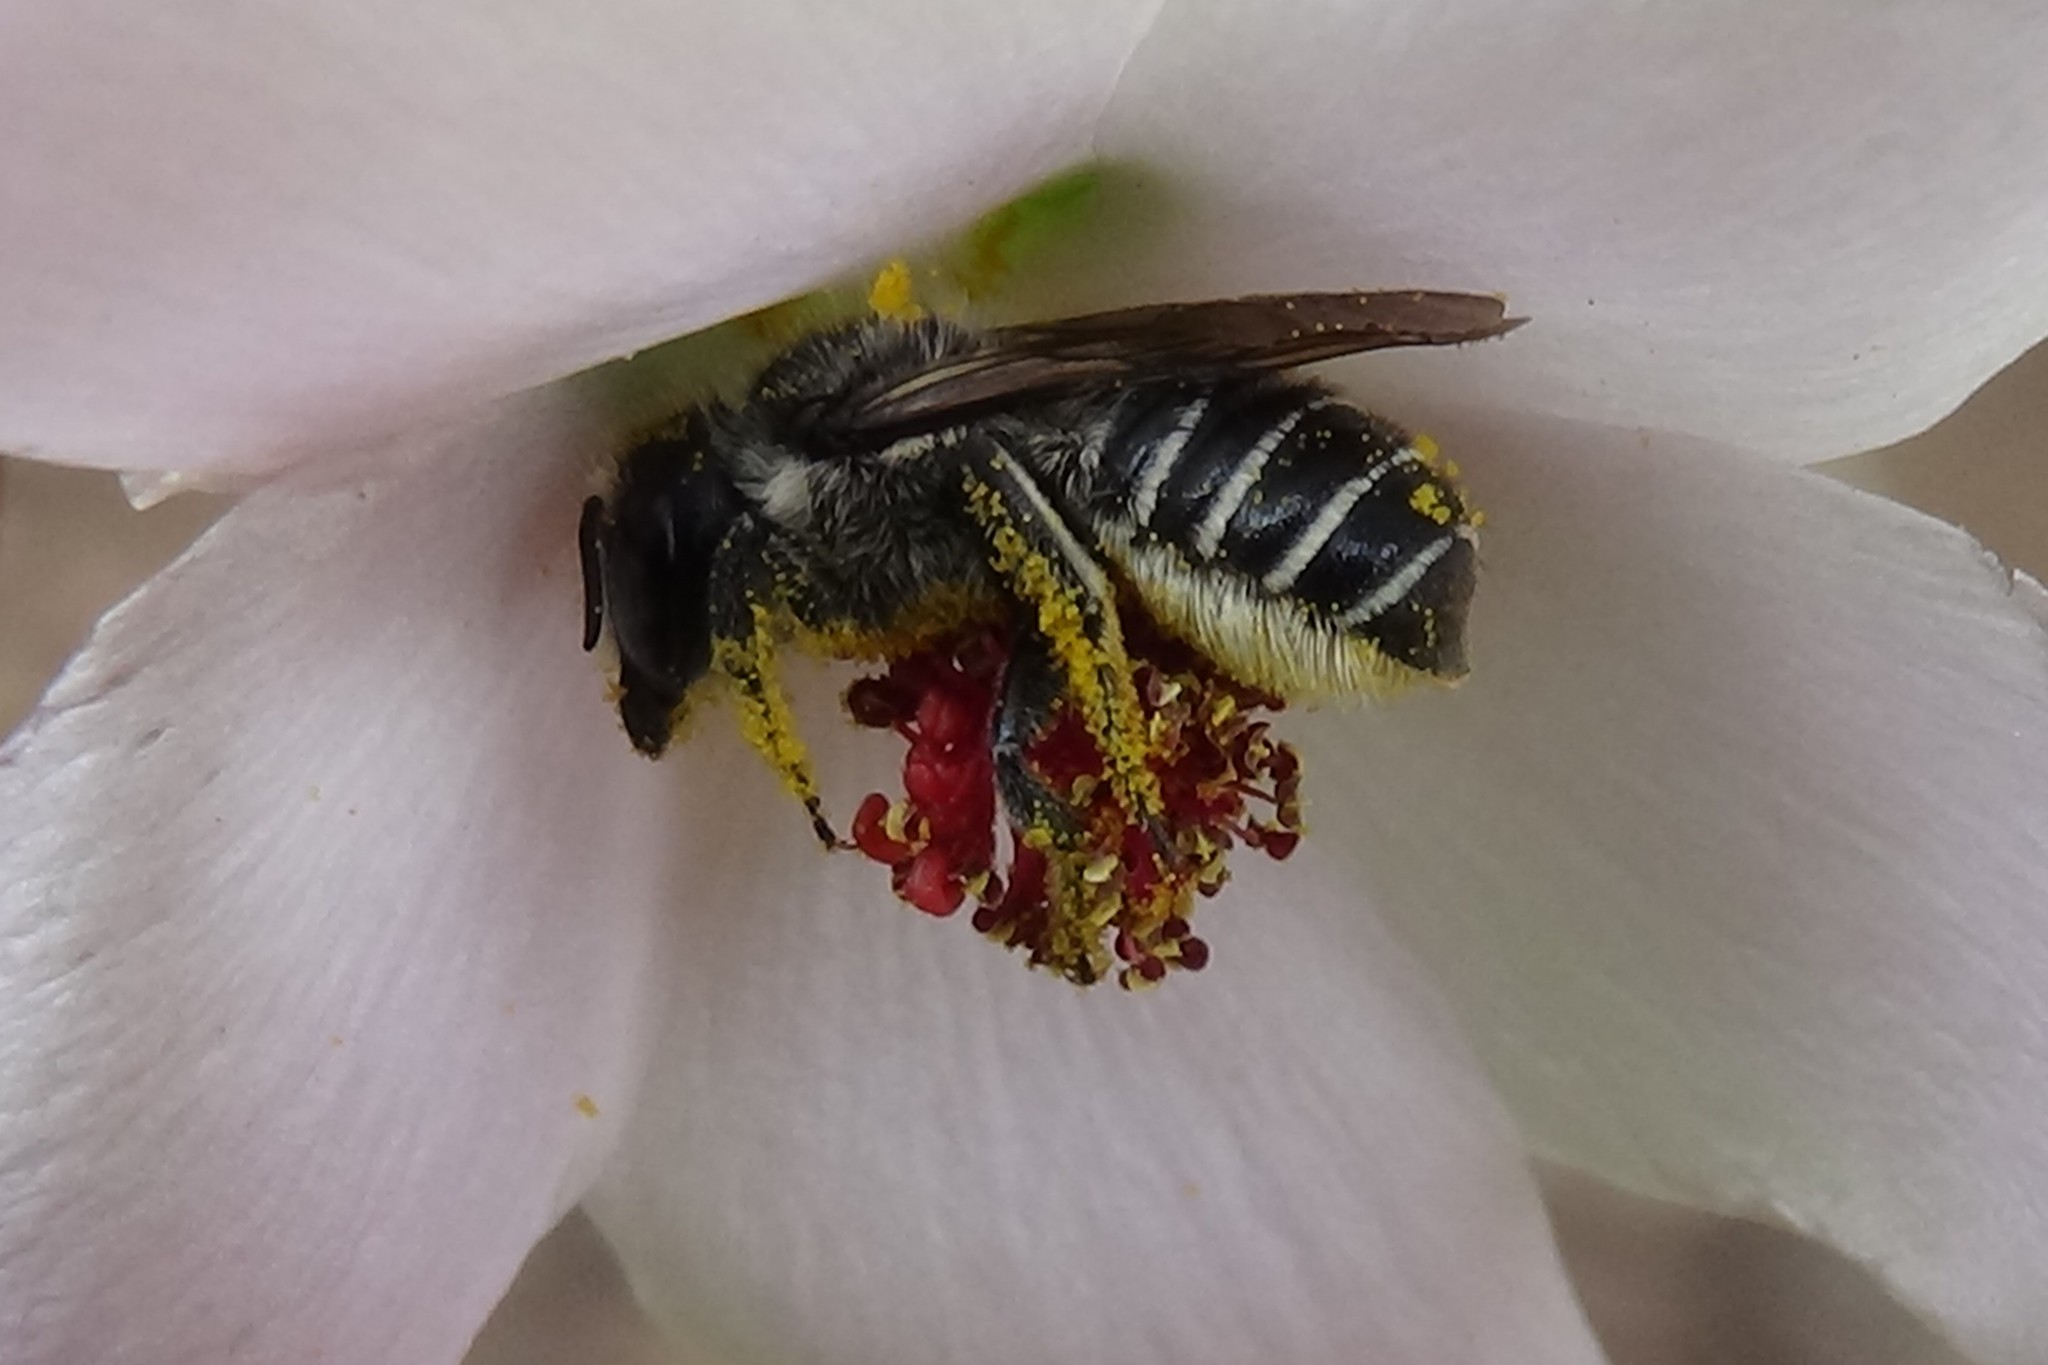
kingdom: Animalia
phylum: Arthropoda
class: Insecta
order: Hymenoptera
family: Megachilidae
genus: Megachile
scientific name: Megachile montivaga
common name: Silver-tailed petalcutter bee
